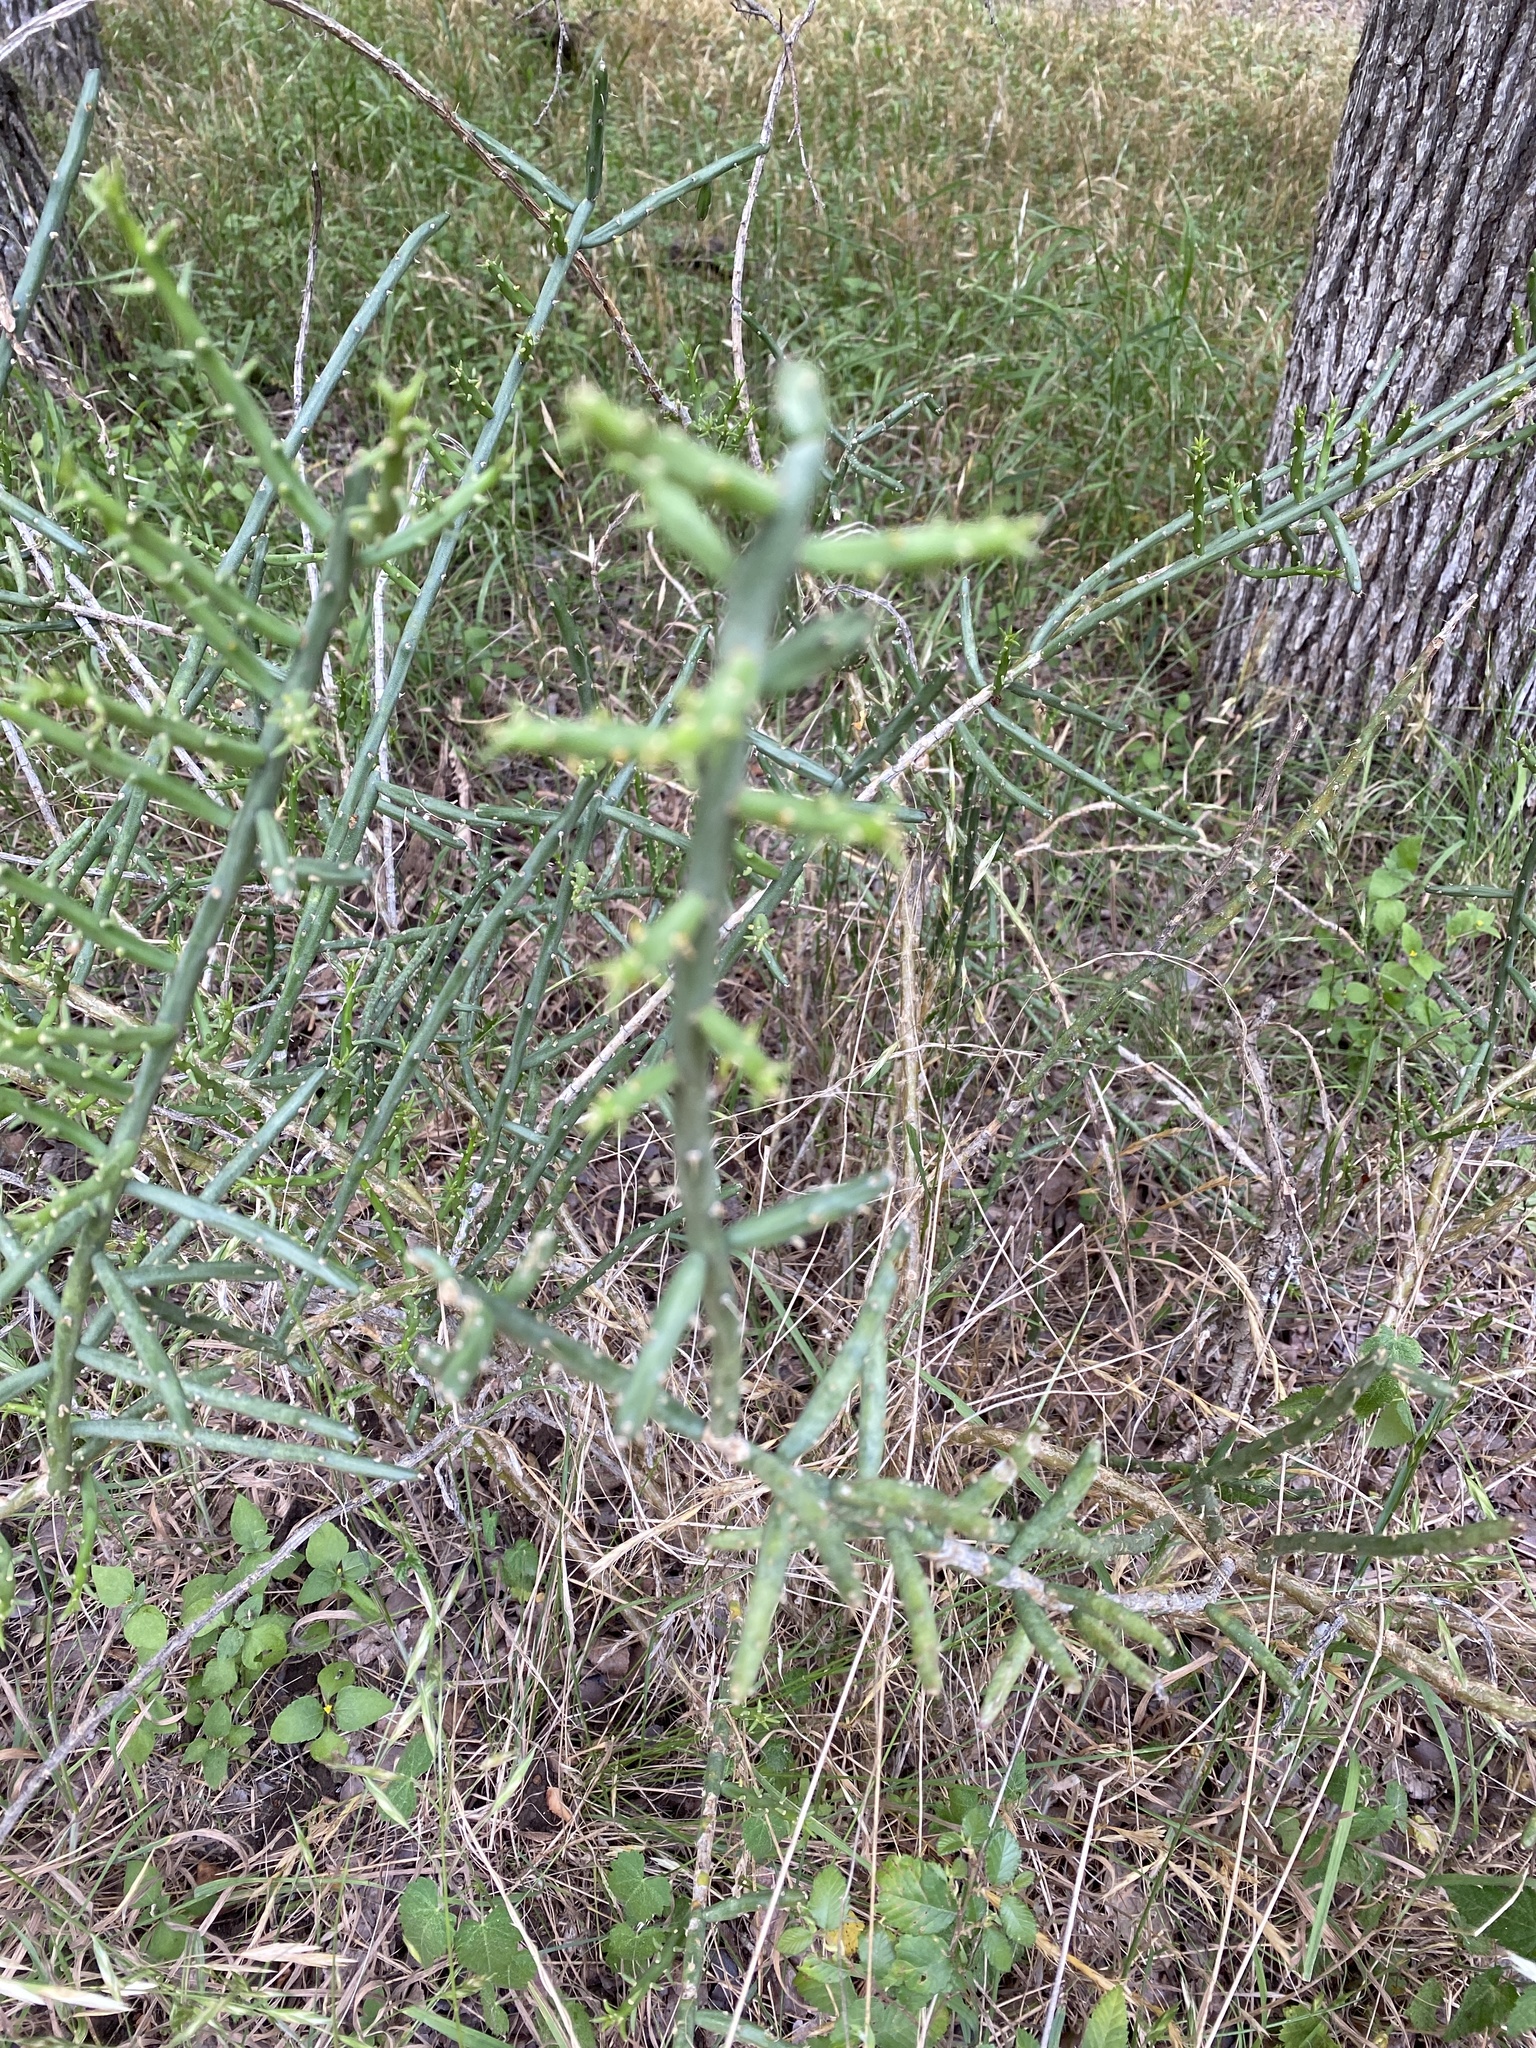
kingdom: Plantae
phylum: Tracheophyta
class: Magnoliopsida
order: Caryophyllales
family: Cactaceae
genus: Cylindropuntia
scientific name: Cylindropuntia leptocaulis
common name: Christmas cactus
